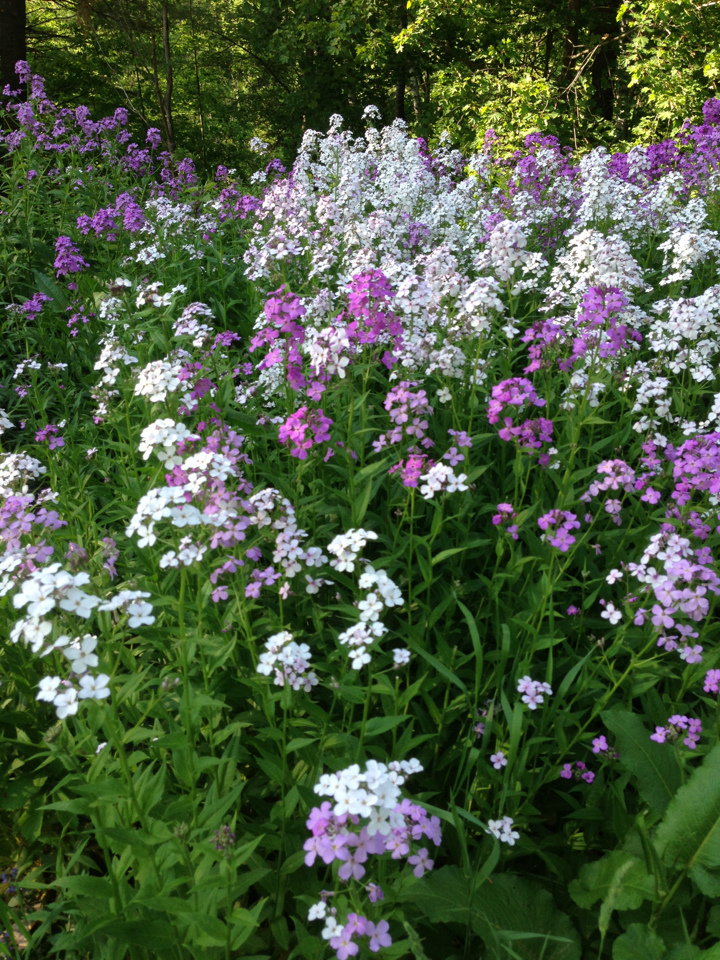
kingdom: Plantae
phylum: Tracheophyta
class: Magnoliopsida
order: Brassicales
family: Brassicaceae
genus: Hesperis
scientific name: Hesperis matronalis
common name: Dame's-violet
